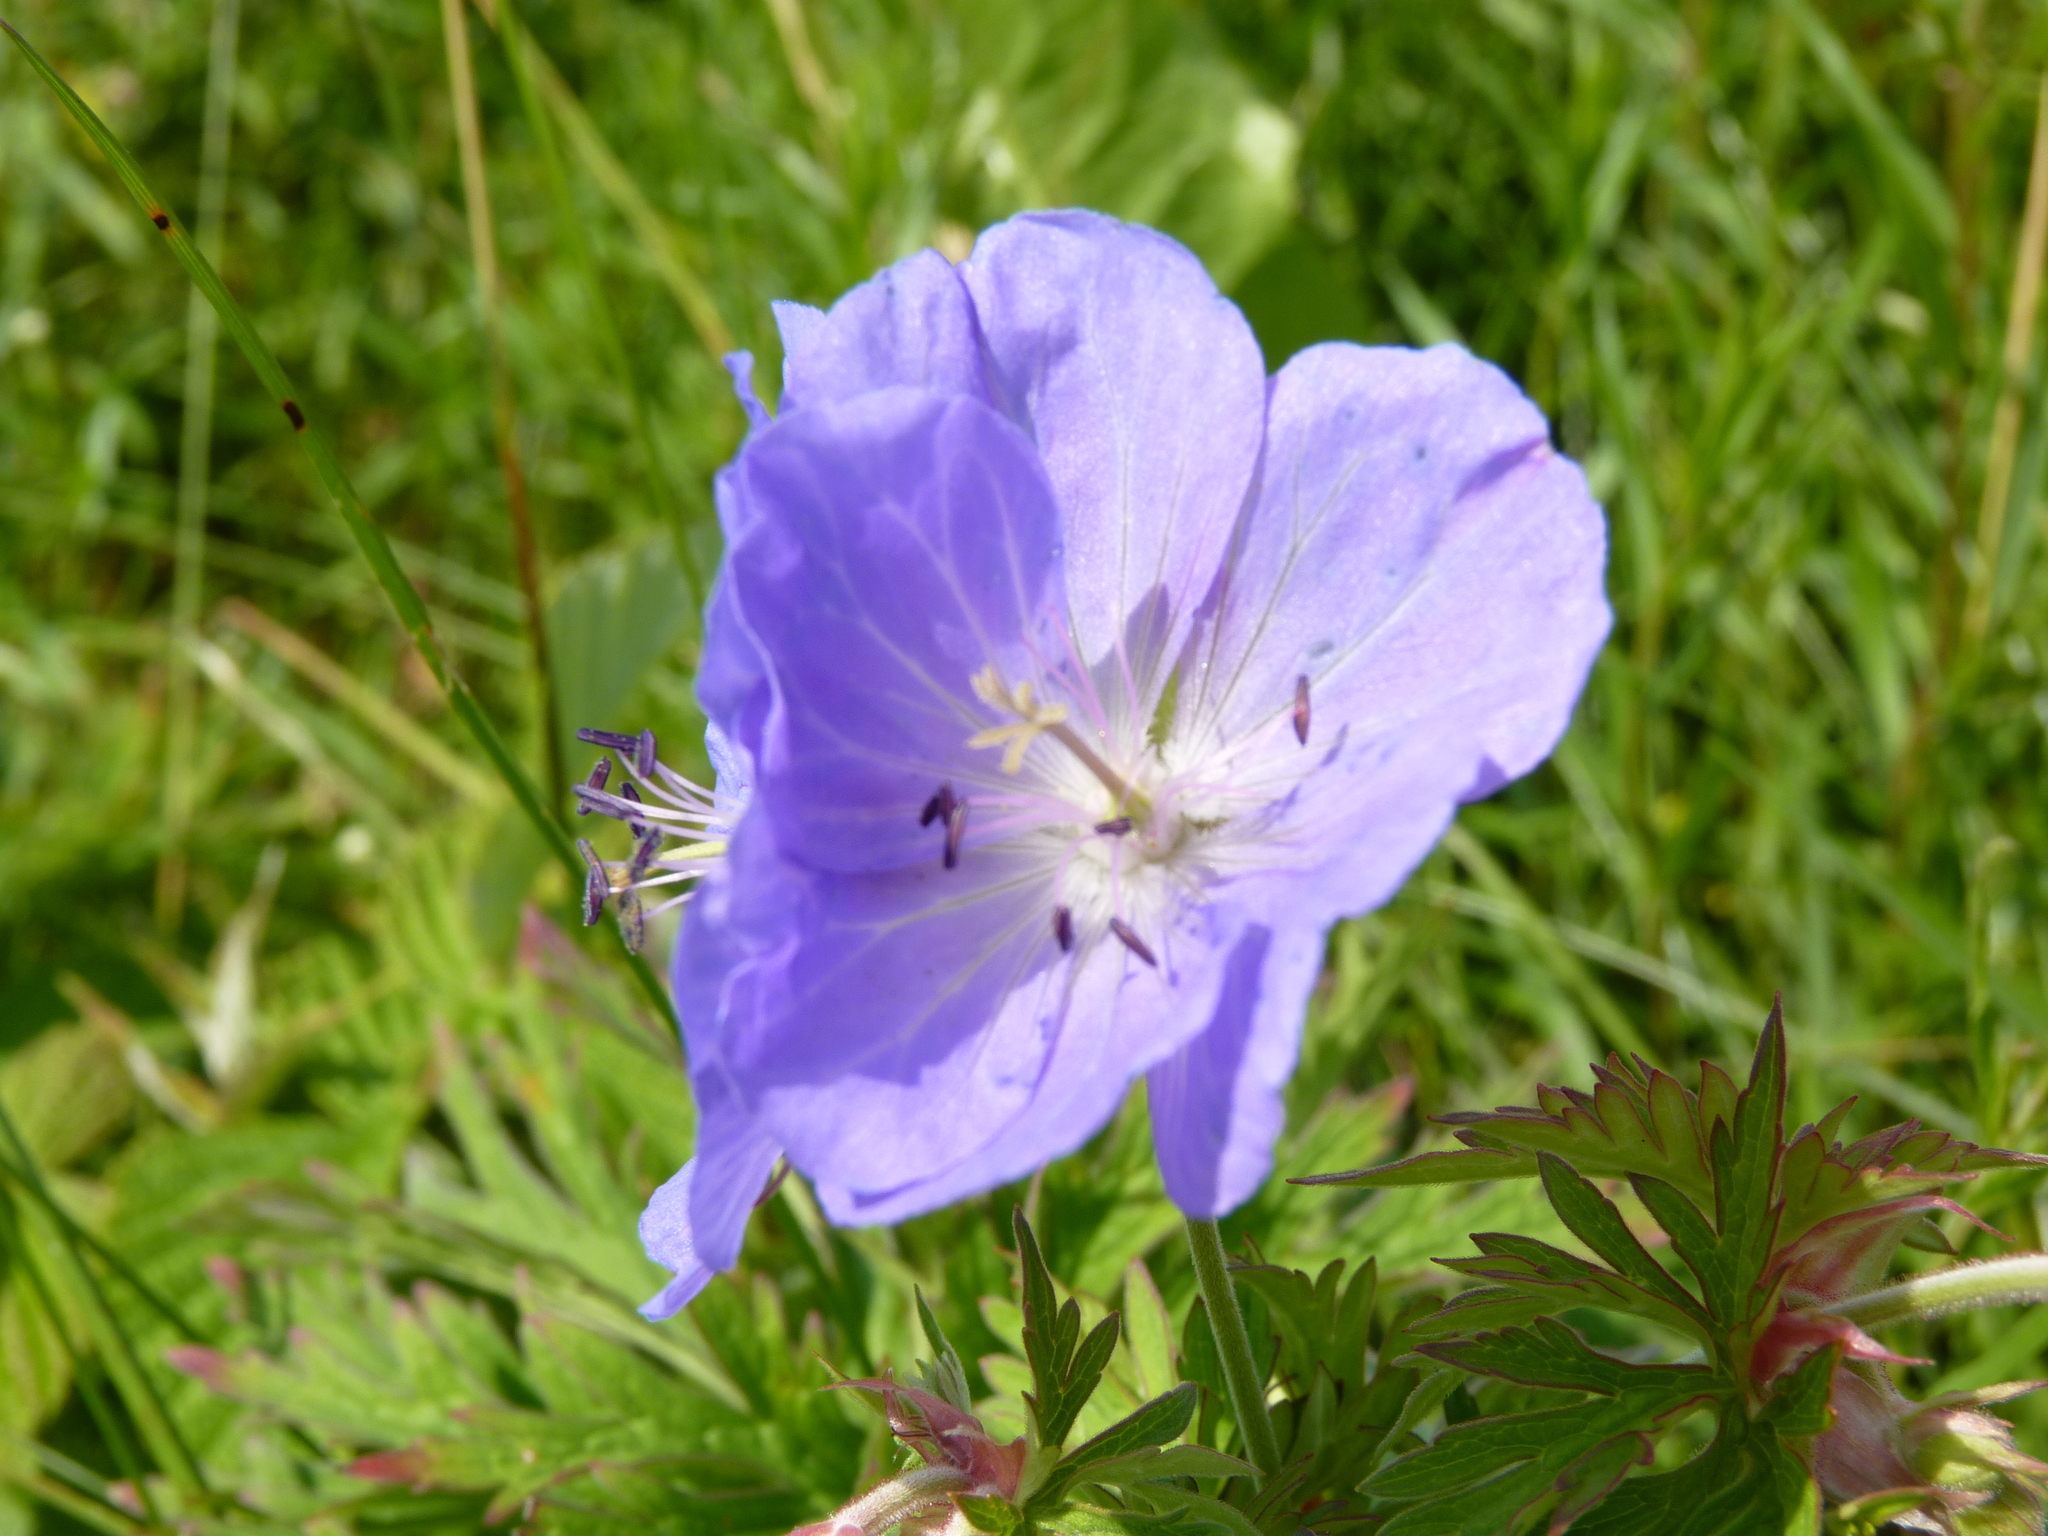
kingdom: Plantae
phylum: Tracheophyta
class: Magnoliopsida
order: Geraniales
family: Geraniaceae
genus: Geranium
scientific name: Geranium pratense
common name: Meadow crane's-bill
